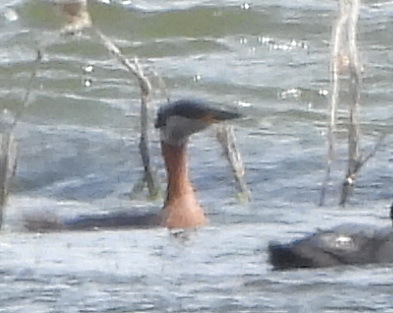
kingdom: Animalia
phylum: Chordata
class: Aves
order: Podicipediformes
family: Podicipedidae
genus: Podiceps
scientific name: Podiceps grisegena
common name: Red-necked grebe
